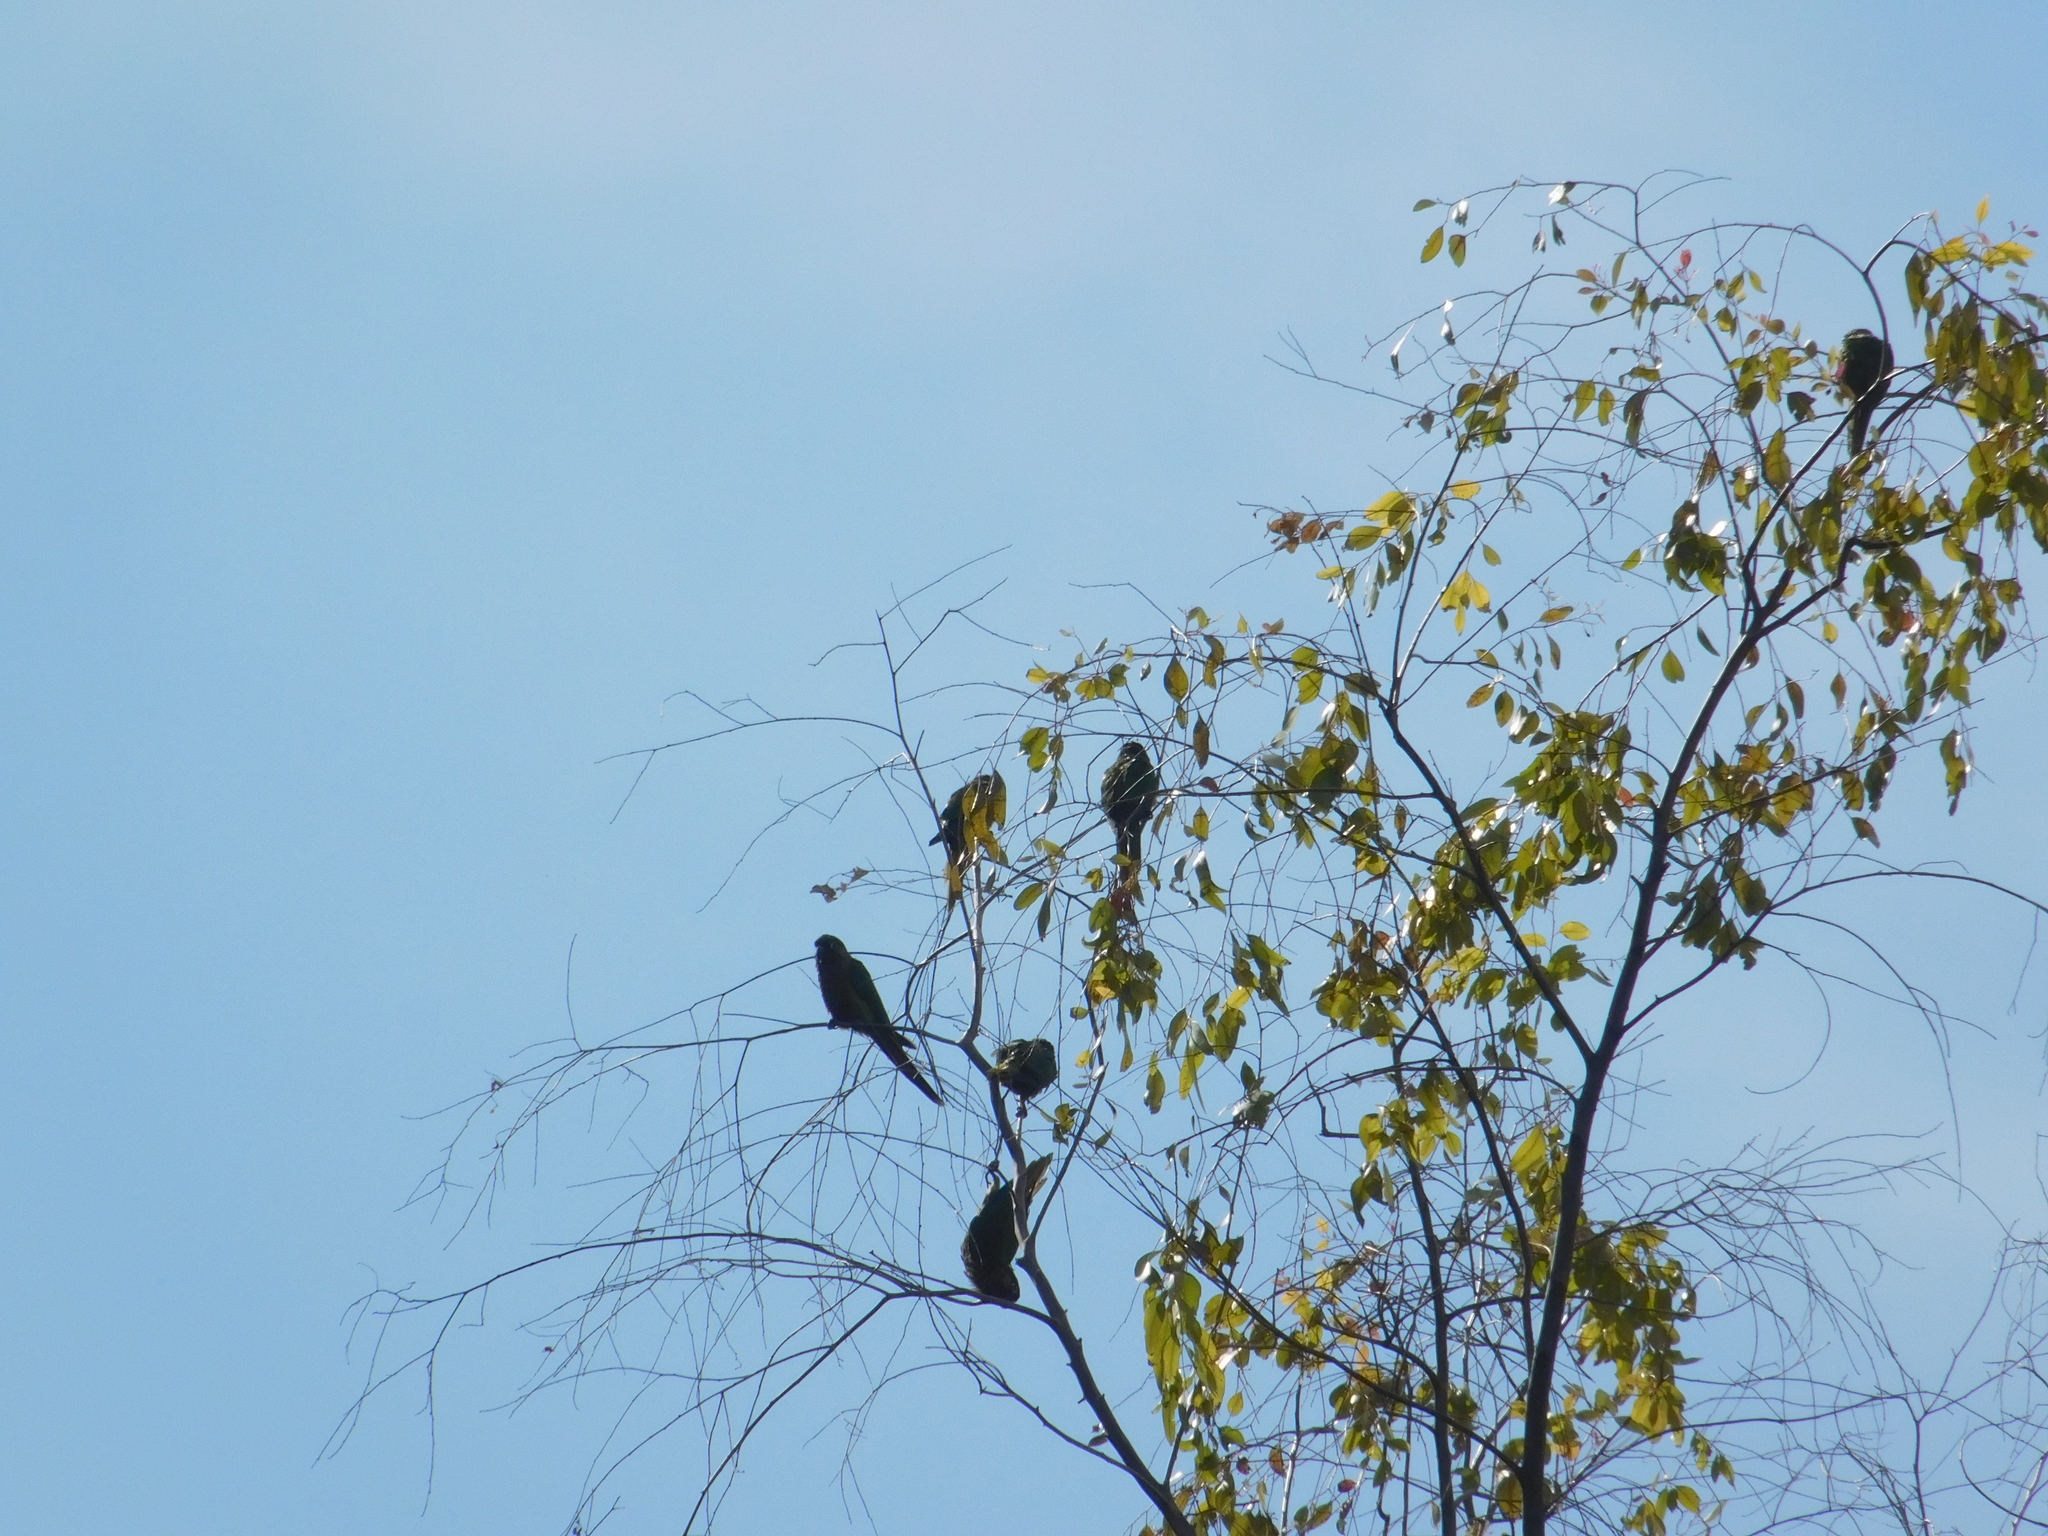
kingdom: Animalia
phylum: Chordata
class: Aves
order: Psittaciformes
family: Psittacidae
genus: Pyrrhura
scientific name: Pyrrhura frontalis
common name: Maroon-bellied parakeet
